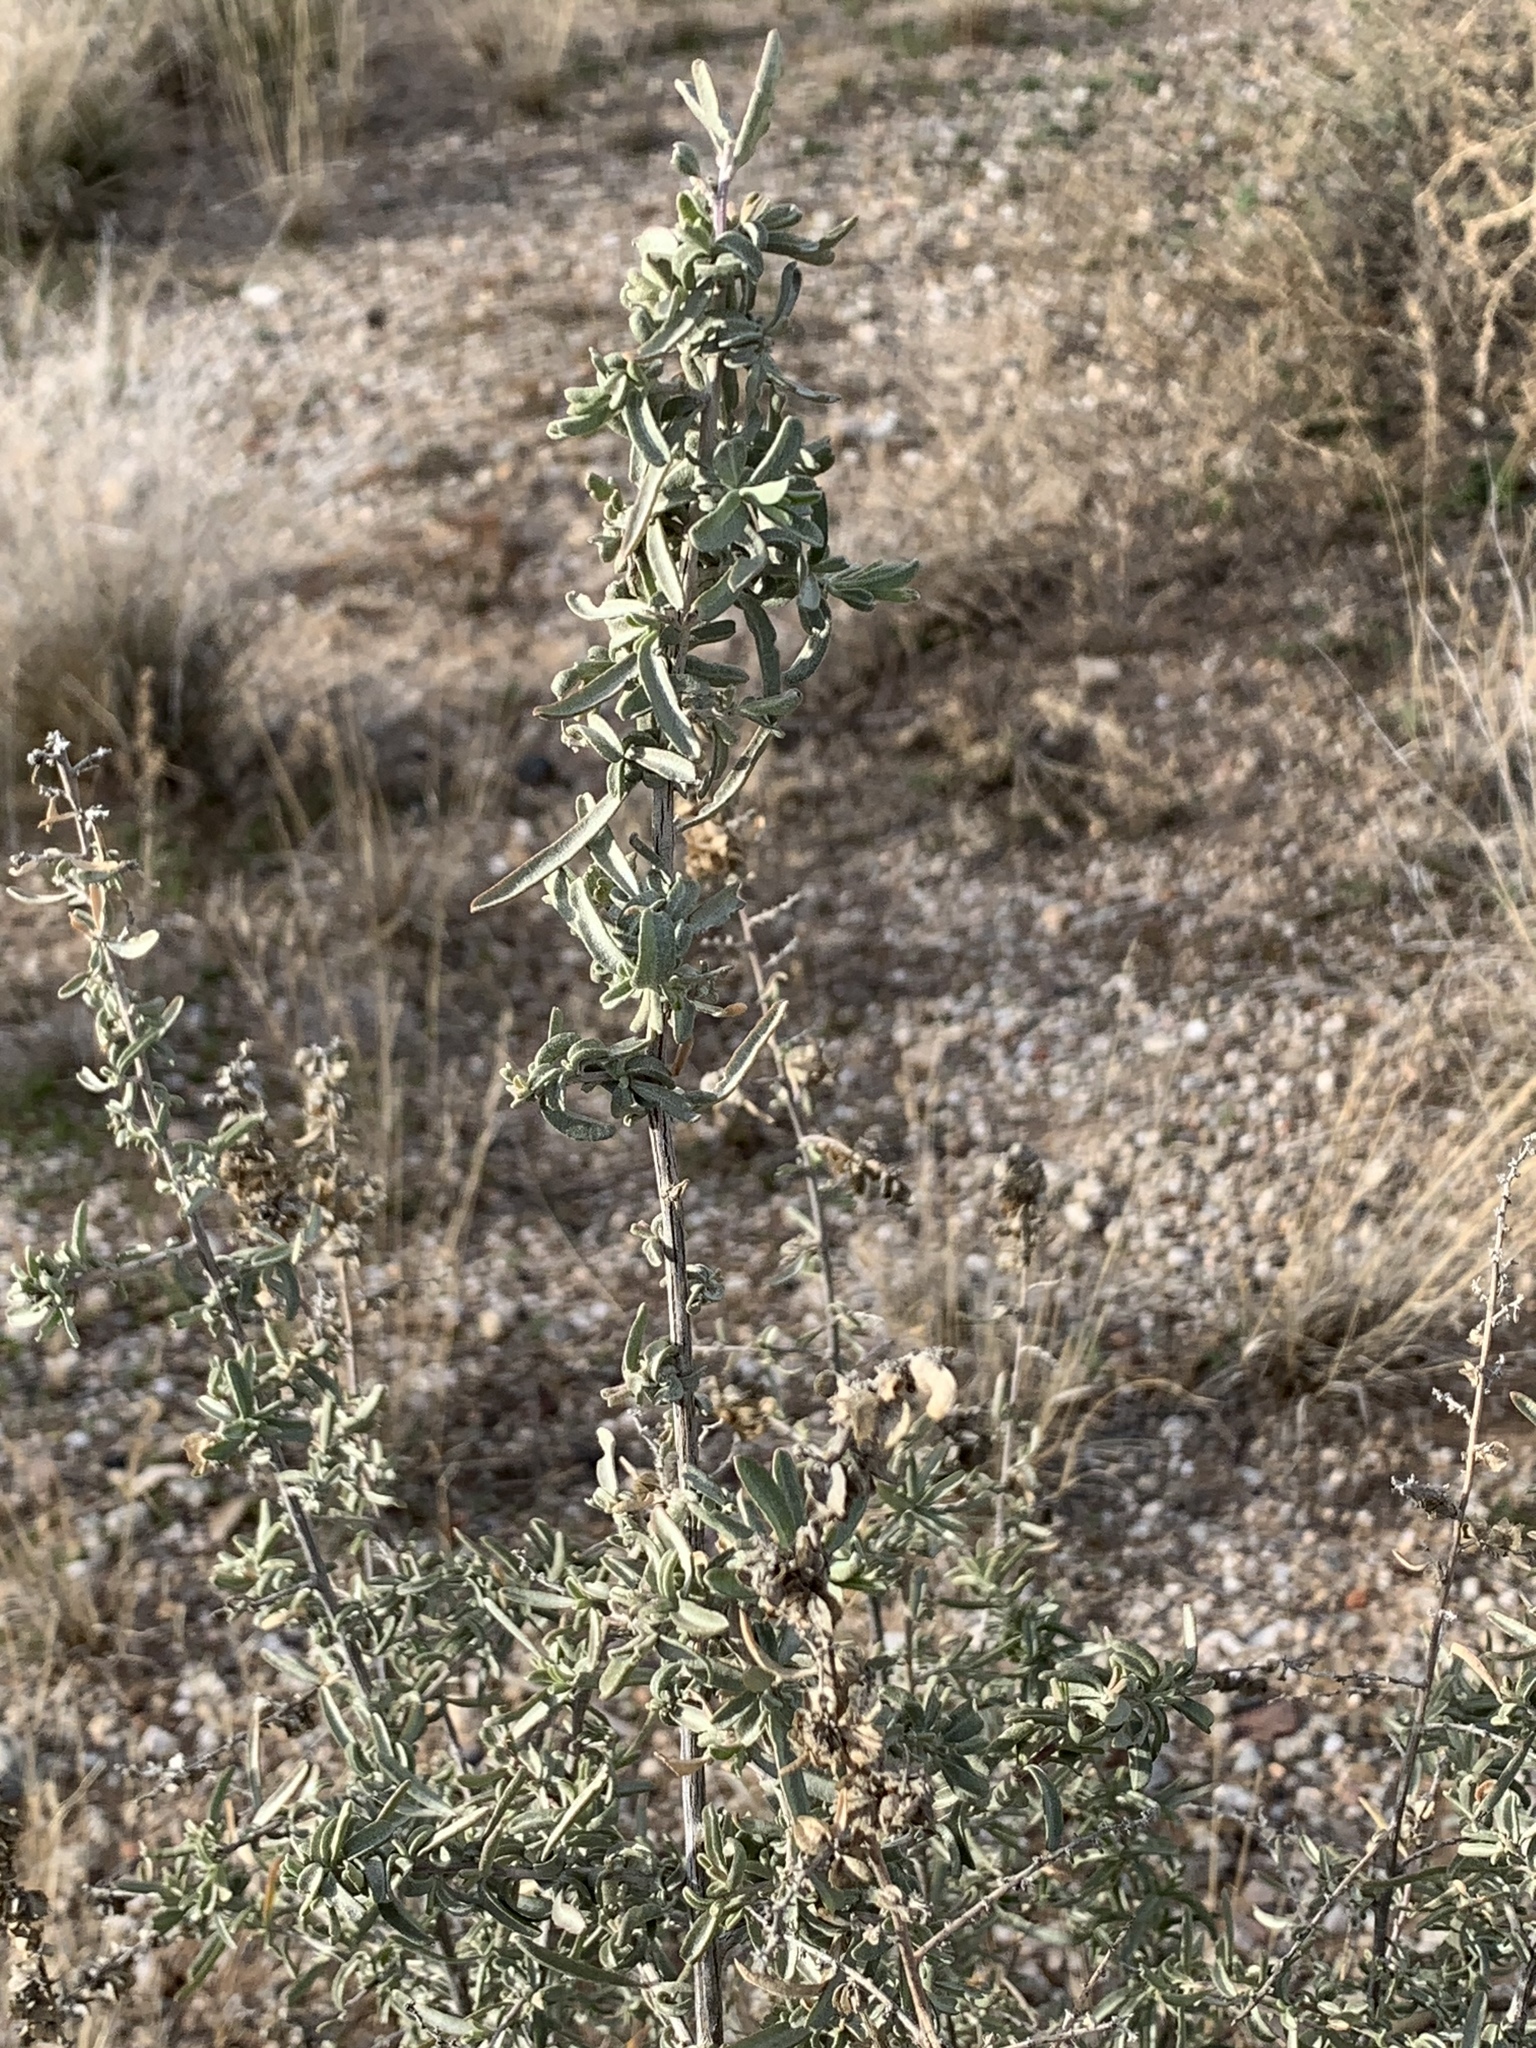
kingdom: Plantae
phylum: Tracheophyta
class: Magnoliopsida
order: Caryophyllales
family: Amaranthaceae
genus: Atriplex
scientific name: Atriplex canescens
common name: Four-wing saltbush
